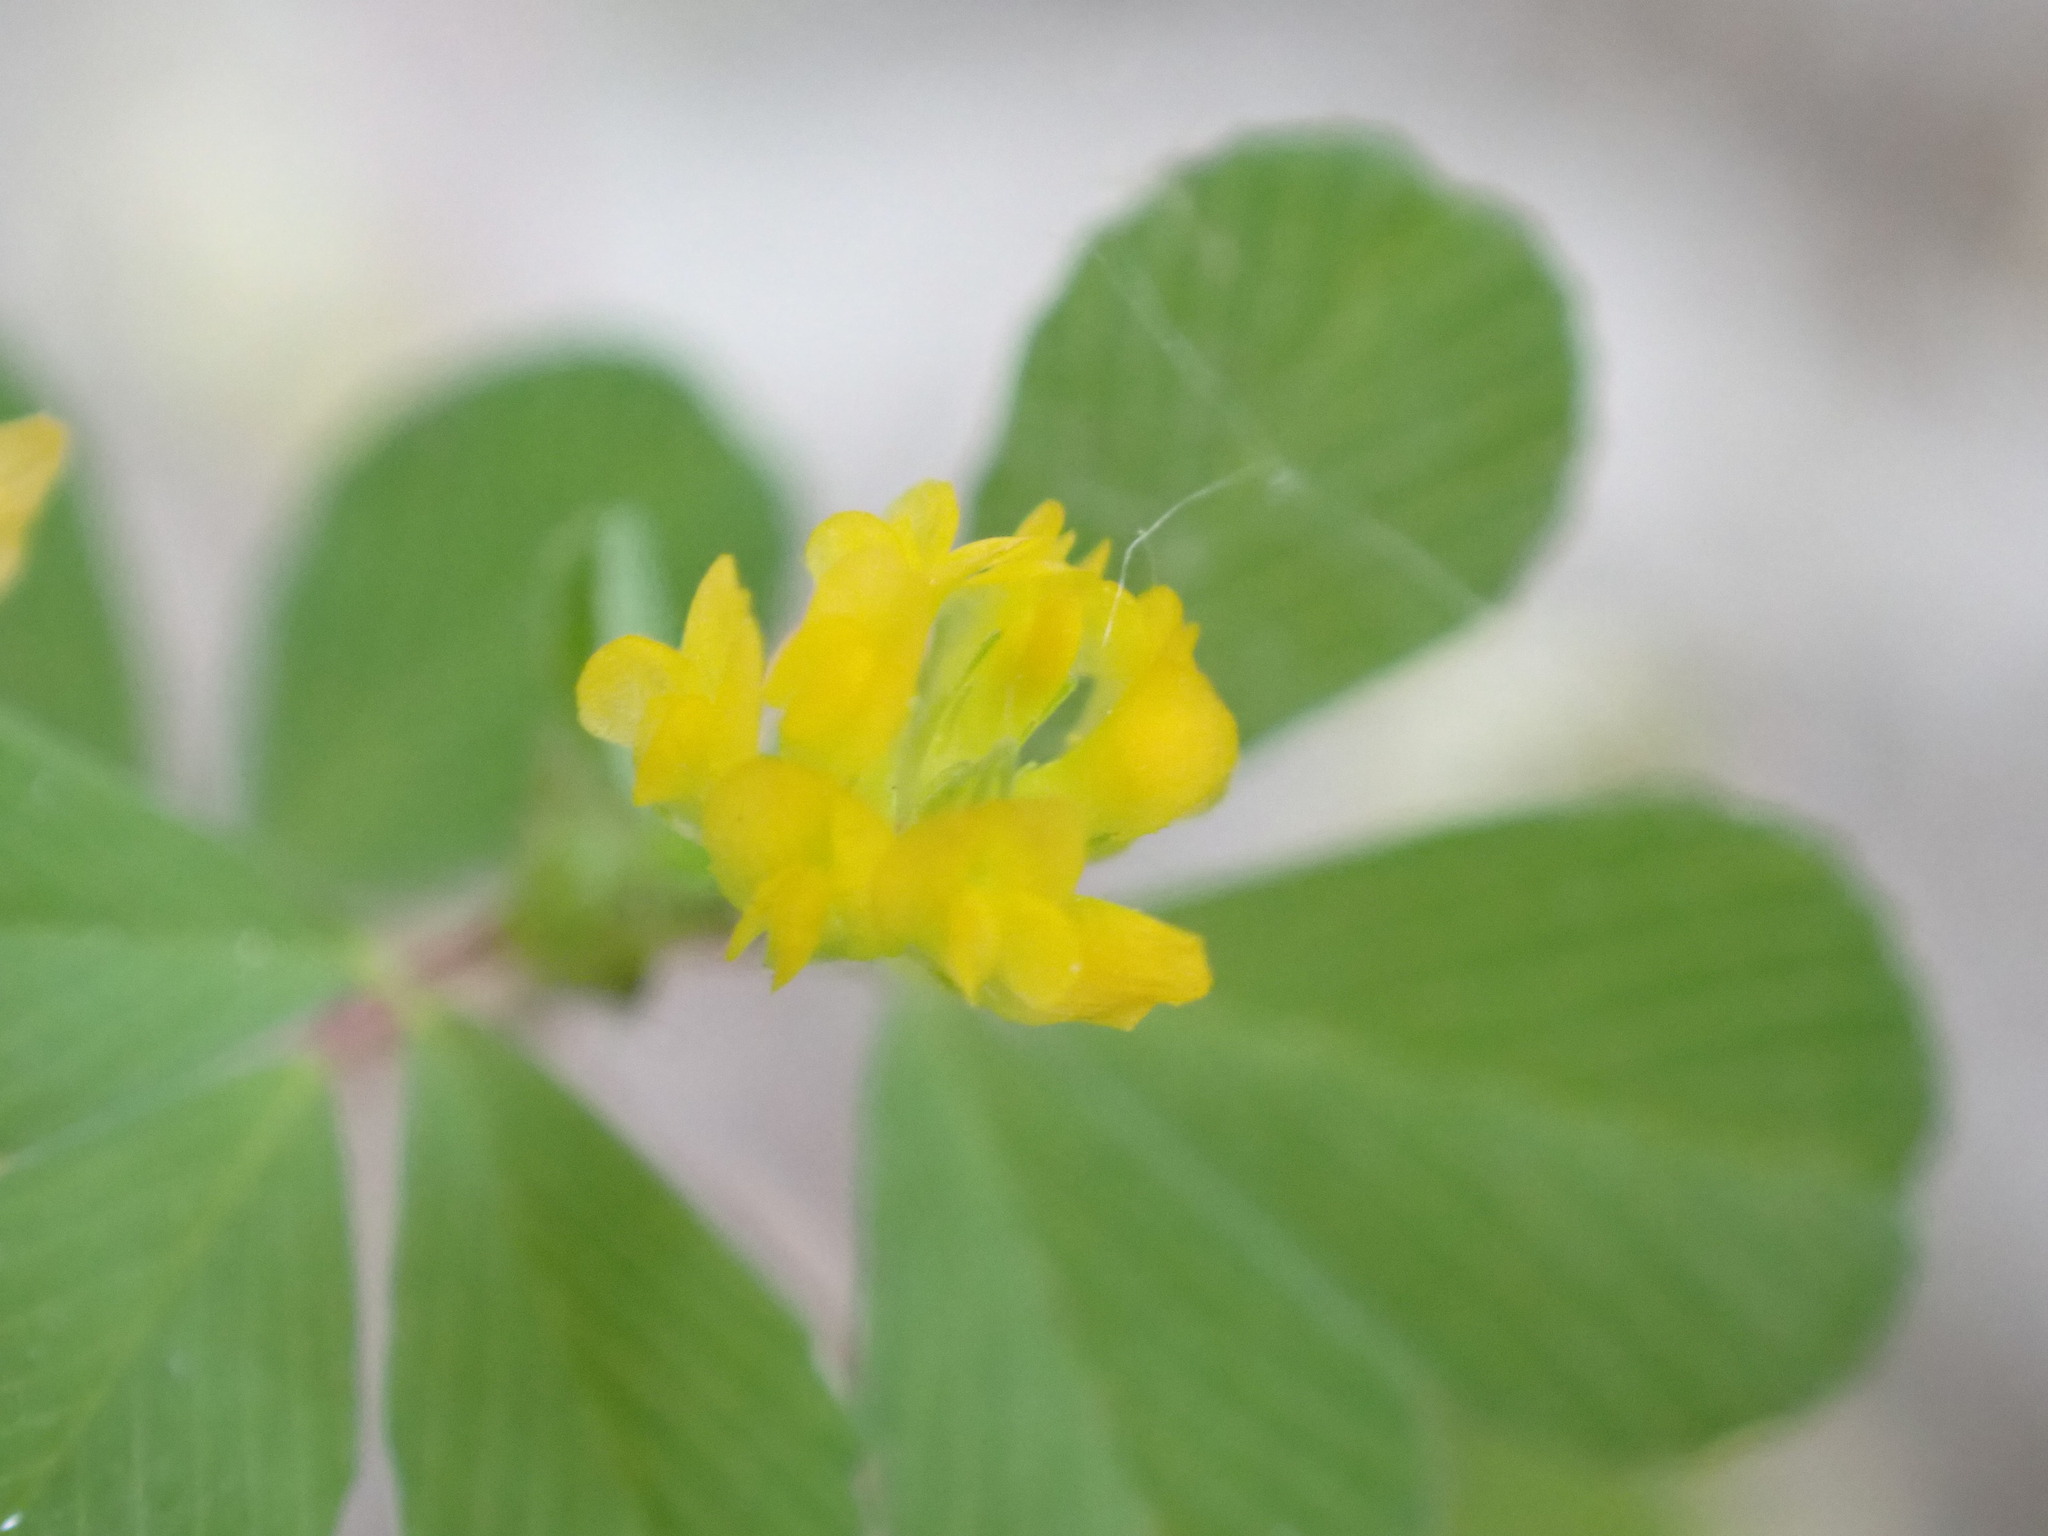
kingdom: Plantae
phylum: Tracheophyta
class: Magnoliopsida
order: Fabales
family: Fabaceae
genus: Trifolium
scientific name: Trifolium dubium
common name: Suckling clover
